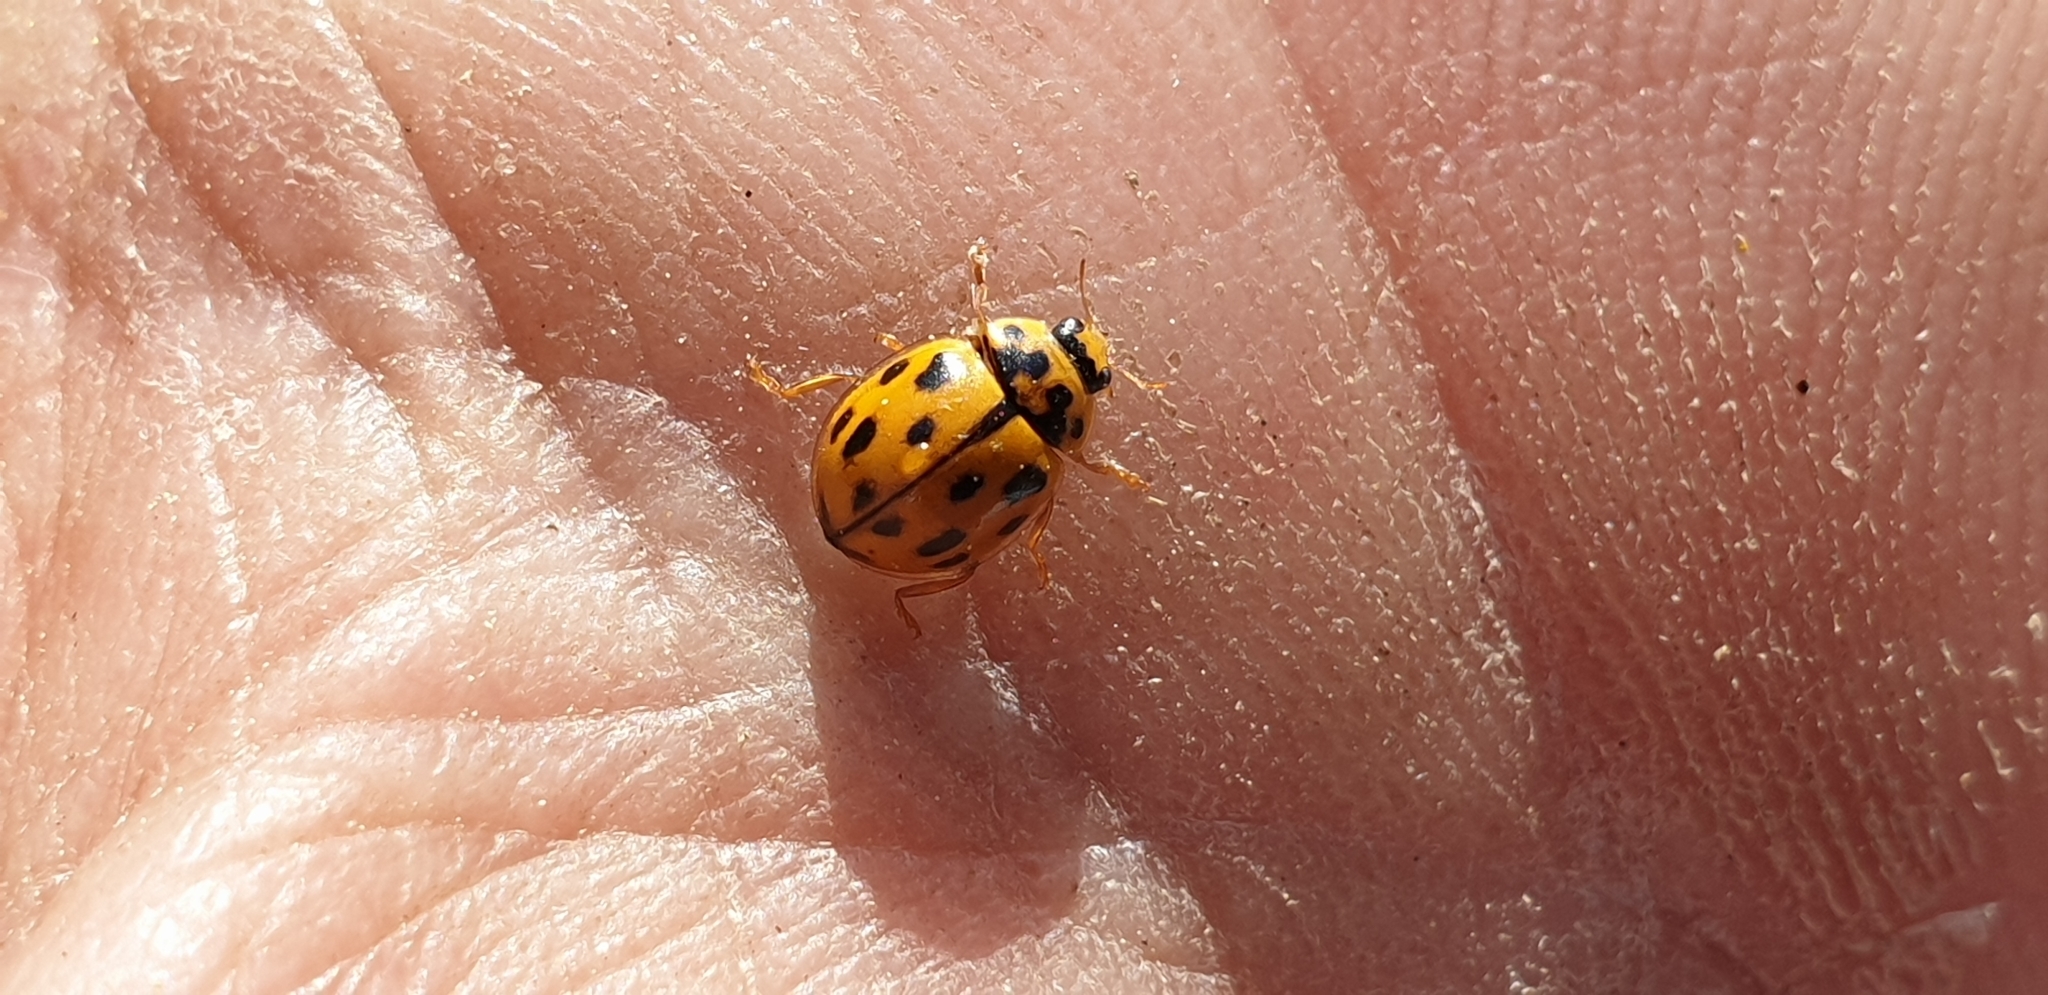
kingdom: Animalia
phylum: Arthropoda
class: Insecta
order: Coleoptera
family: Coccinellidae
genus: Propylaea
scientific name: Propylaea quatuordecimpunctata
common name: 14-spotted ladybird beetle
